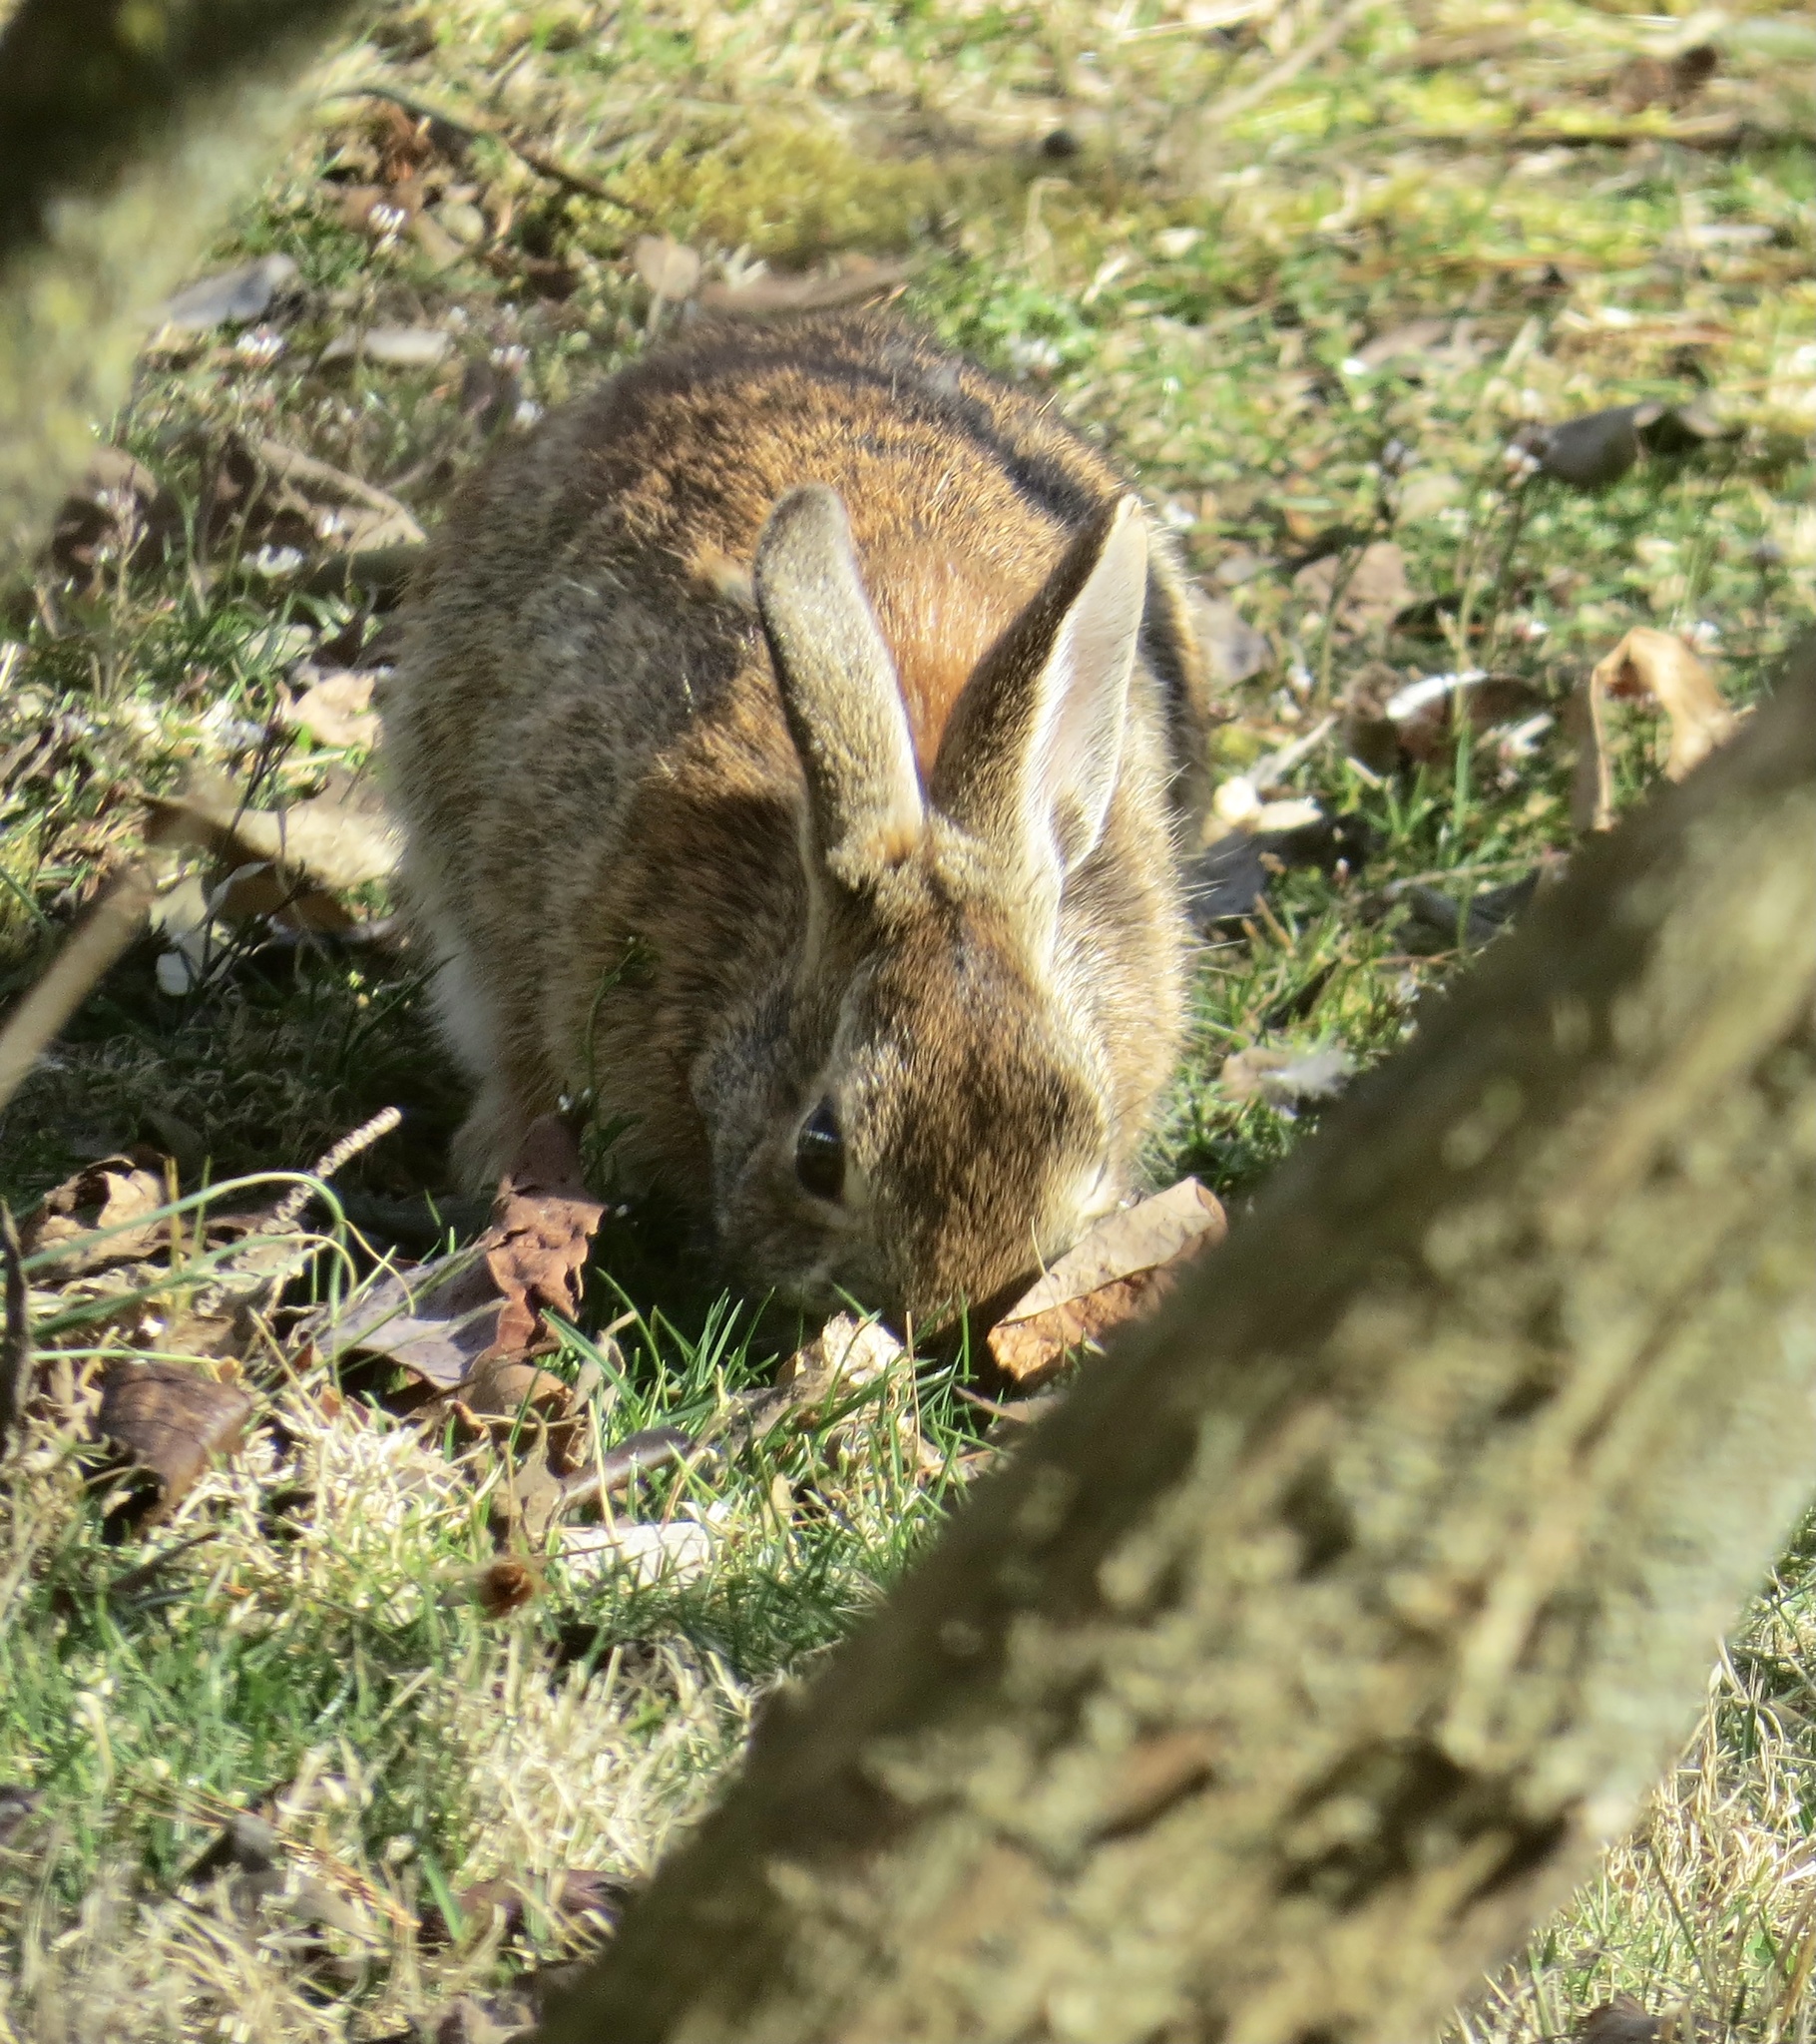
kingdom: Animalia
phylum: Chordata
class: Mammalia
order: Lagomorpha
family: Leporidae
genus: Sylvilagus
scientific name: Sylvilagus floridanus
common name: Eastern cottontail
